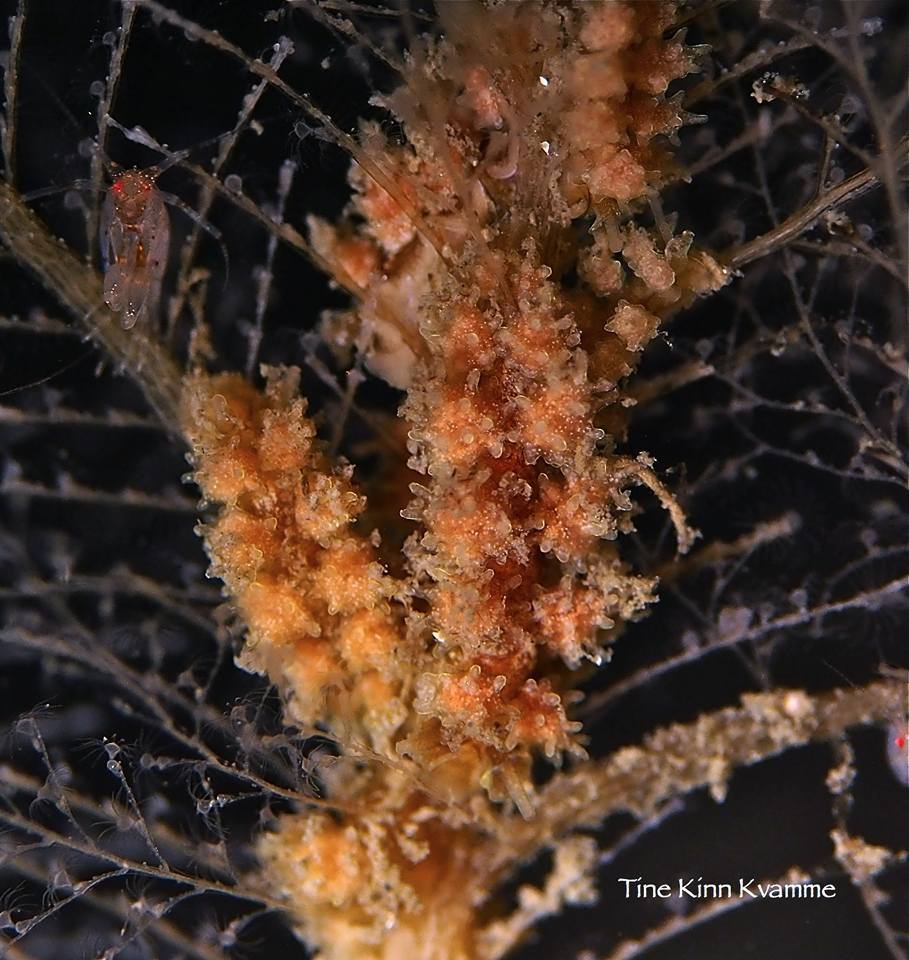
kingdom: Animalia
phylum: Mollusca
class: Gastropoda
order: Nudibranchia
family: Dotidae
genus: Doto
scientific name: Doto hystrix
